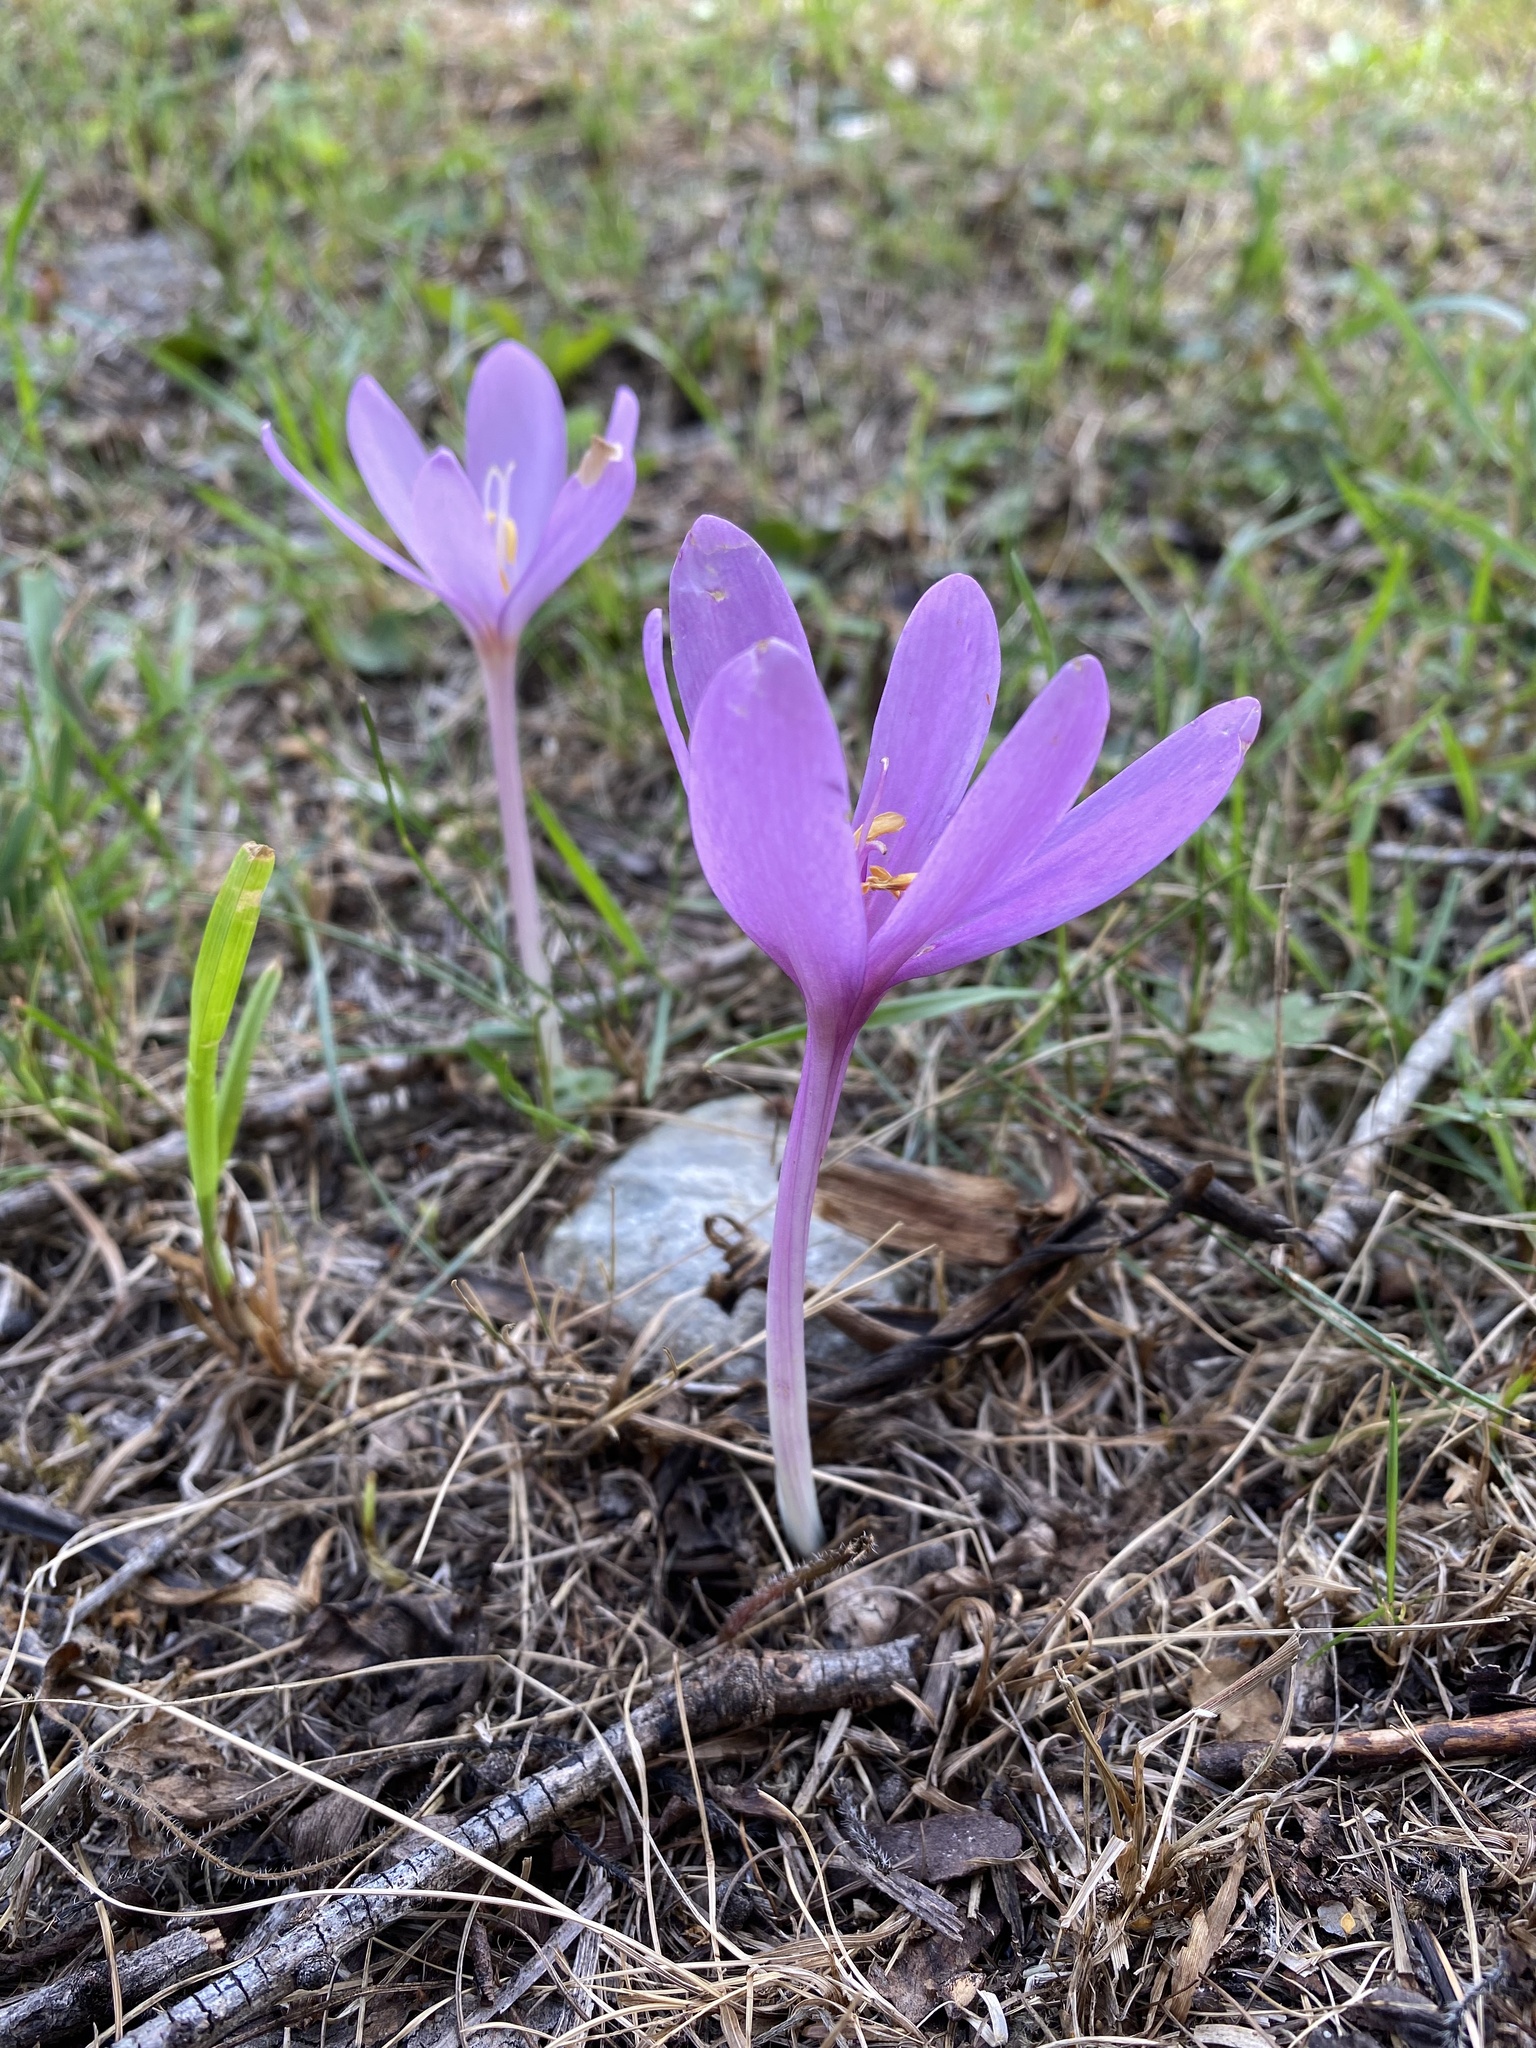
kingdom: Plantae
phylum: Tracheophyta
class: Liliopsida
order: Liliales
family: Colchicaceae
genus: Colchicum
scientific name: Colchicum autumnale
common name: Autumn crocus
